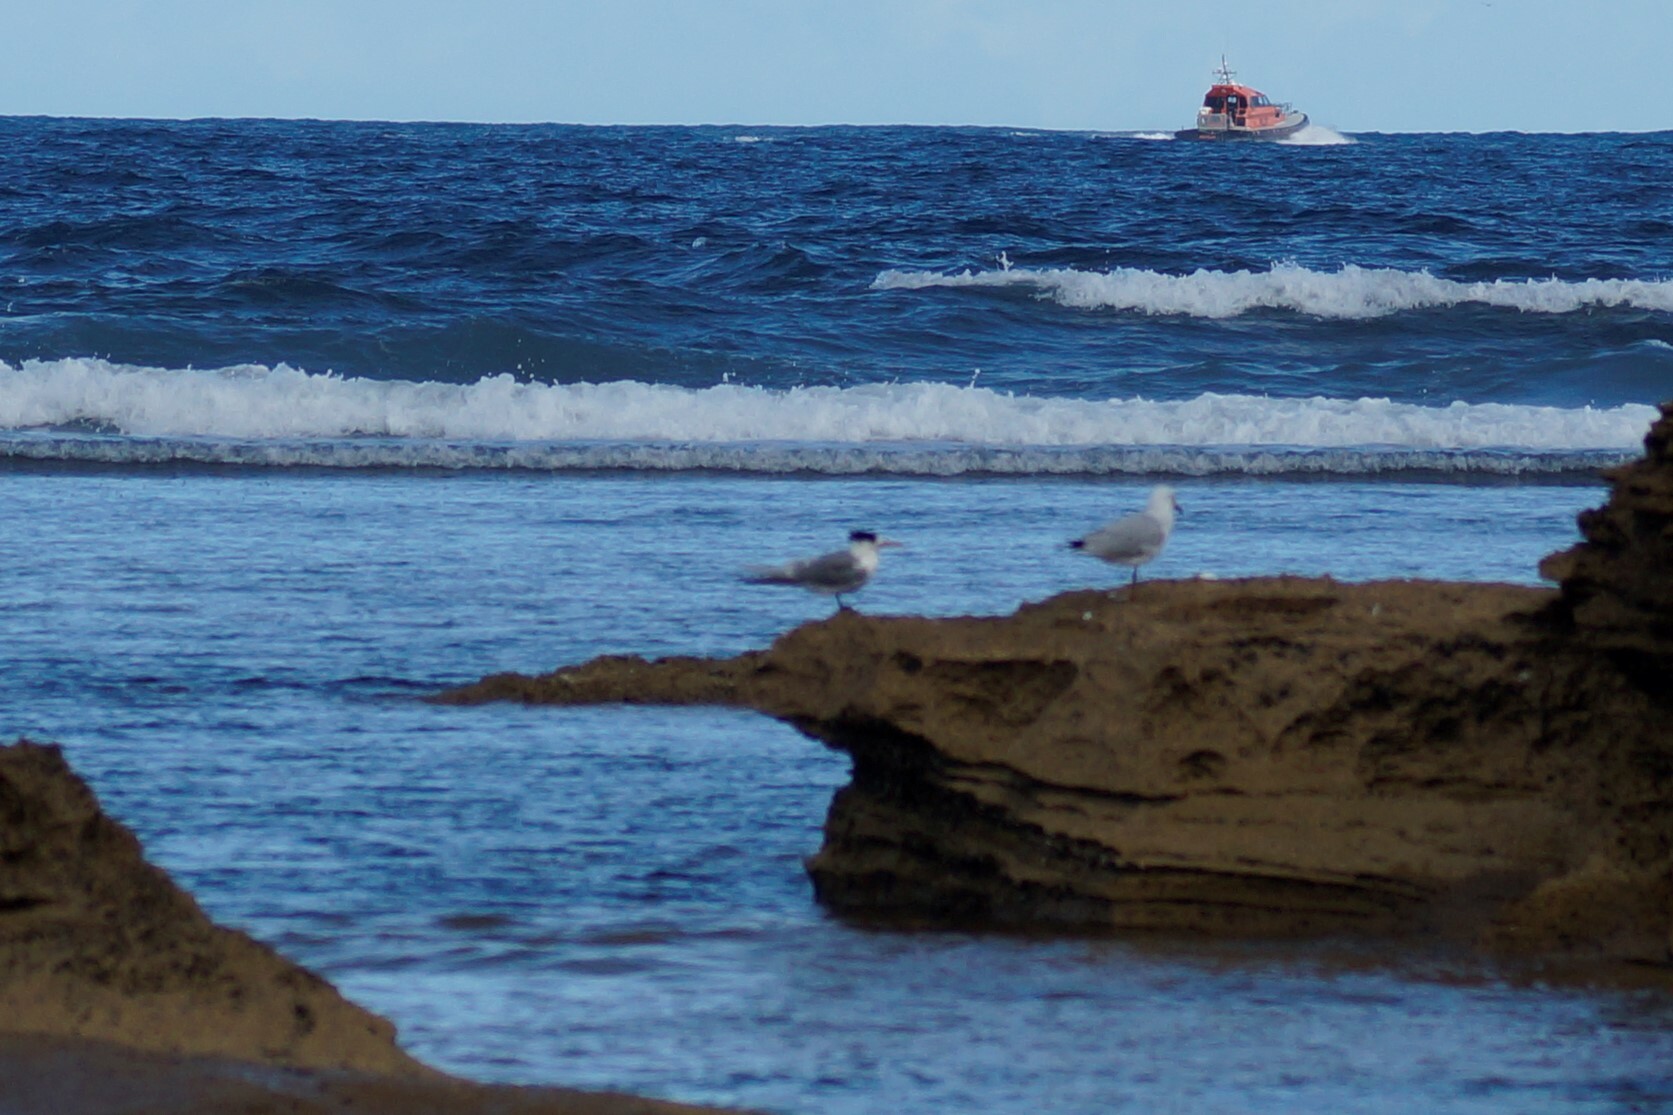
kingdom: Animalia
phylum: Chordata
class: Aves
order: Charadriiformes
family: Laridae
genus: Thalasseus
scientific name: Thalasseus bergii
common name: Greater crested tern
